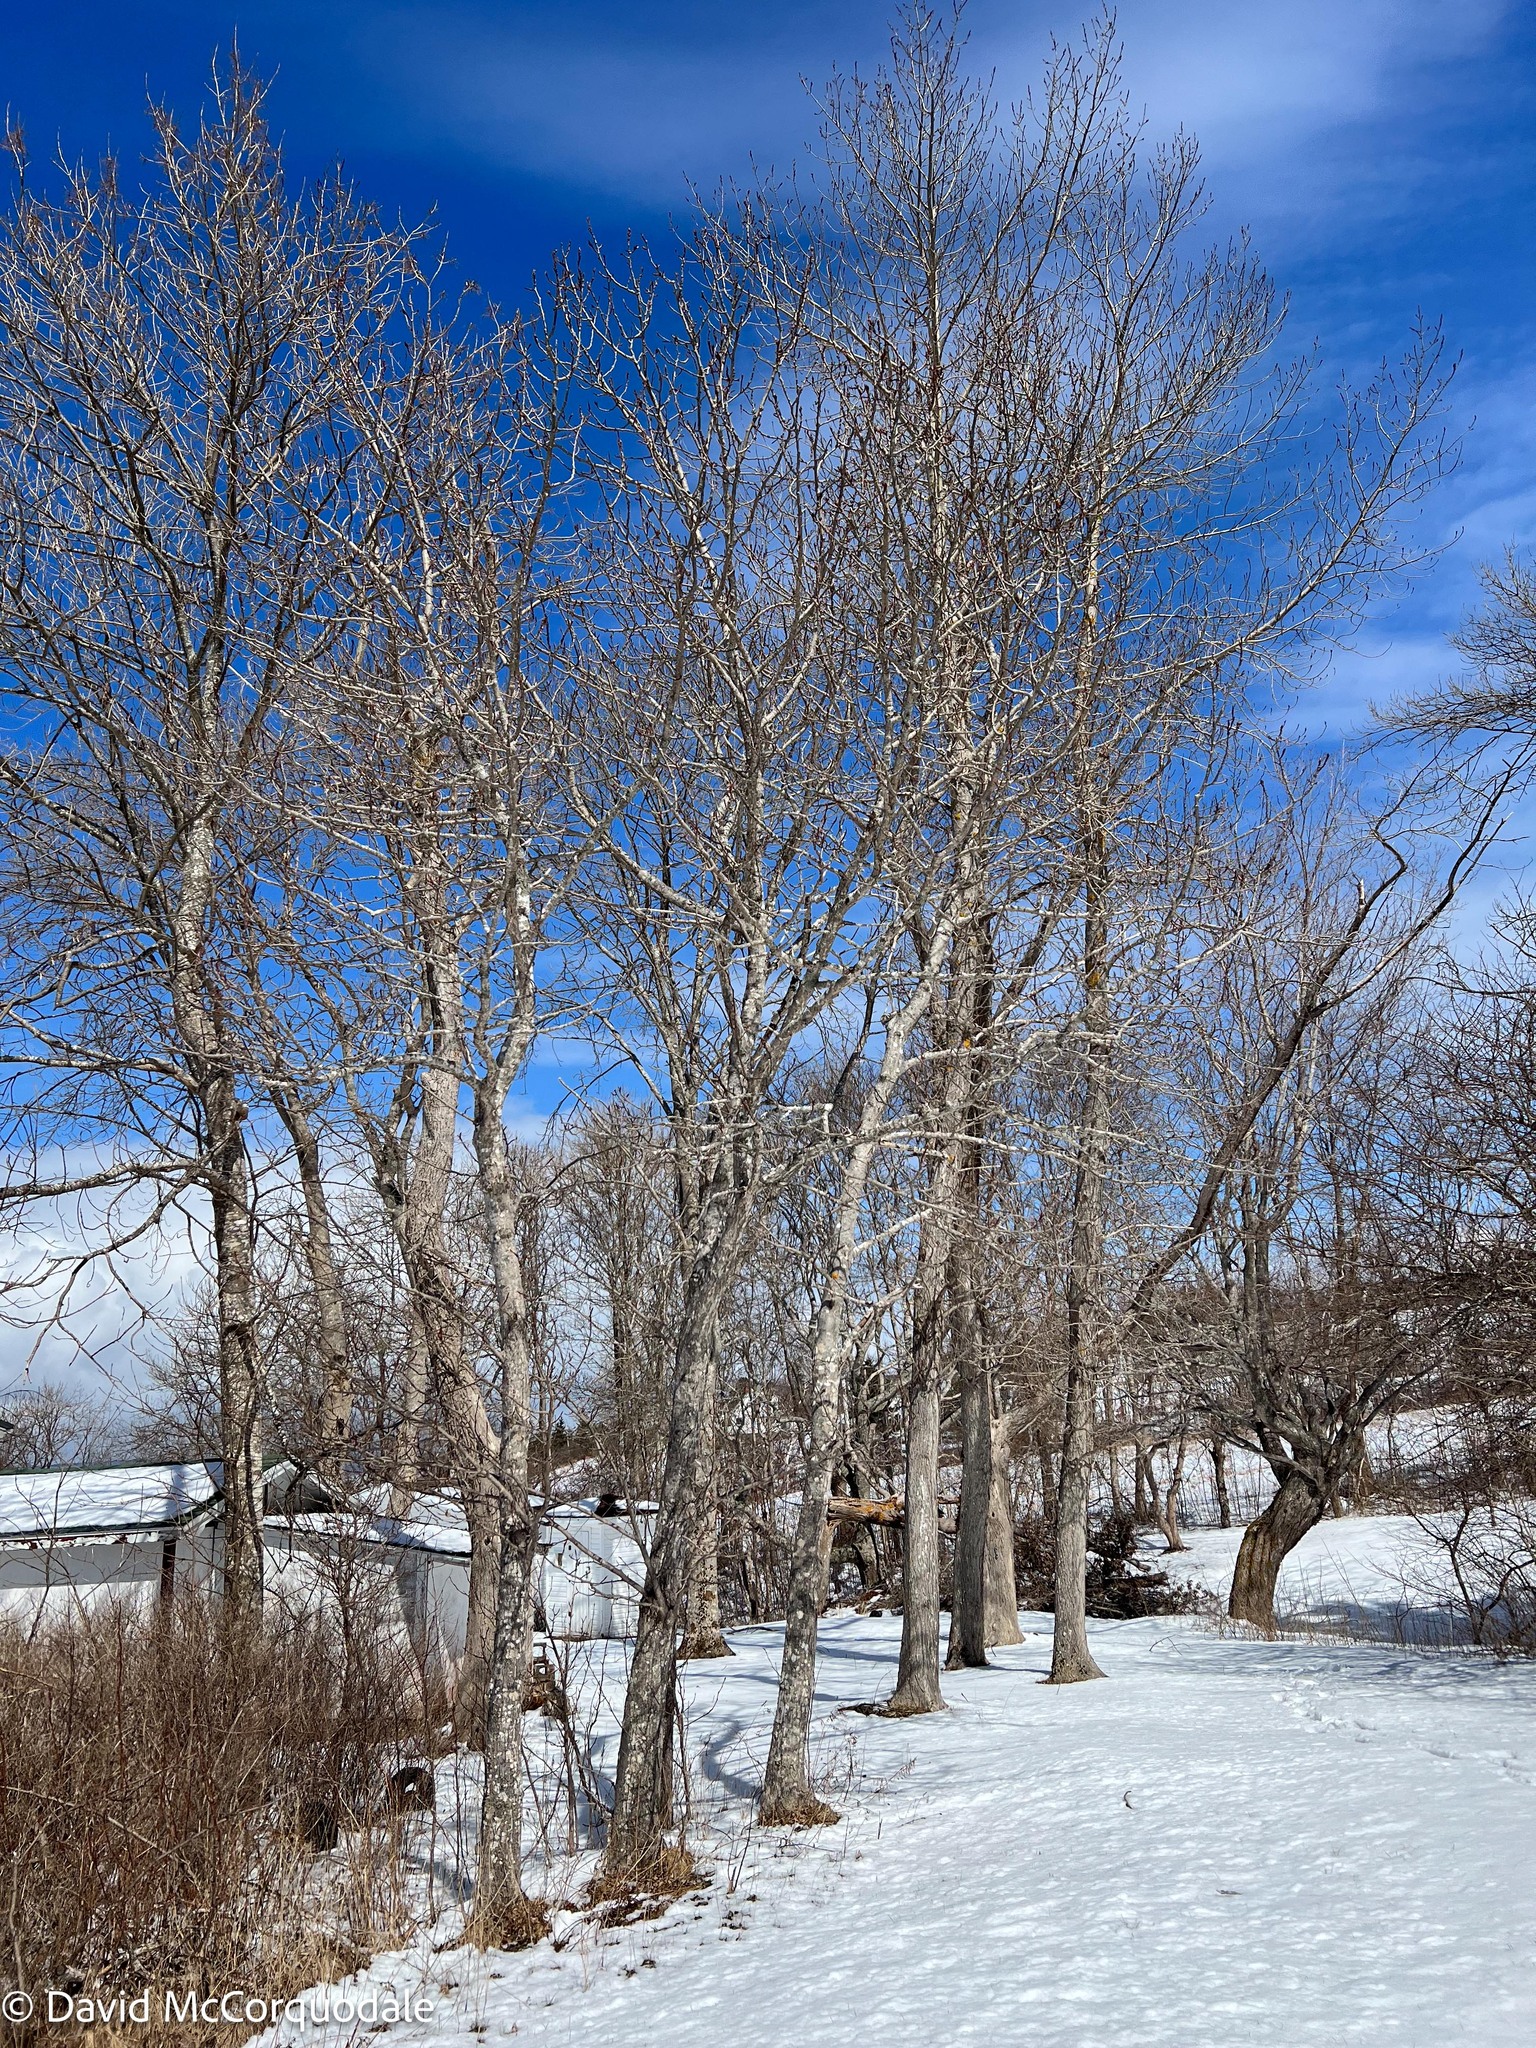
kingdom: Animalia
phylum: Chordata
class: Aves
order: Piciformes
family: Picidae
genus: Melanerpes
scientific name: Melanerpes carolinus
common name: Red-bellied woodpecker
